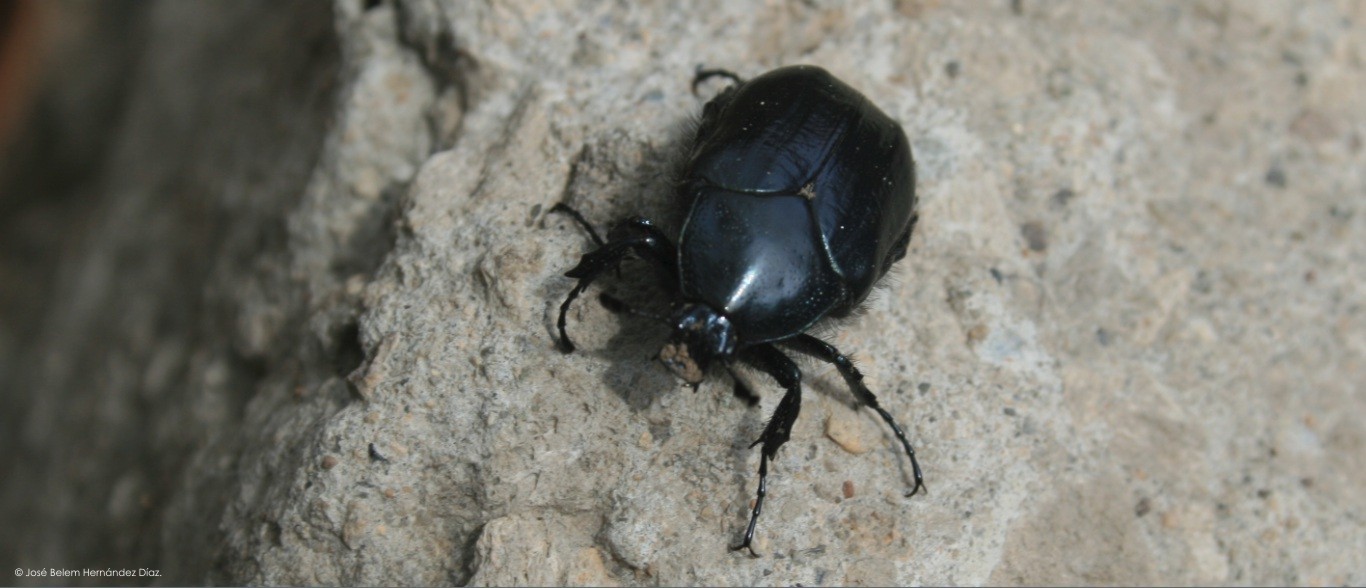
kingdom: Animalia
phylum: Arthropoda
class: Insecta
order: Coleoptera
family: Scarabaeidae
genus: Cotinis
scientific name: Cotinis antonii
